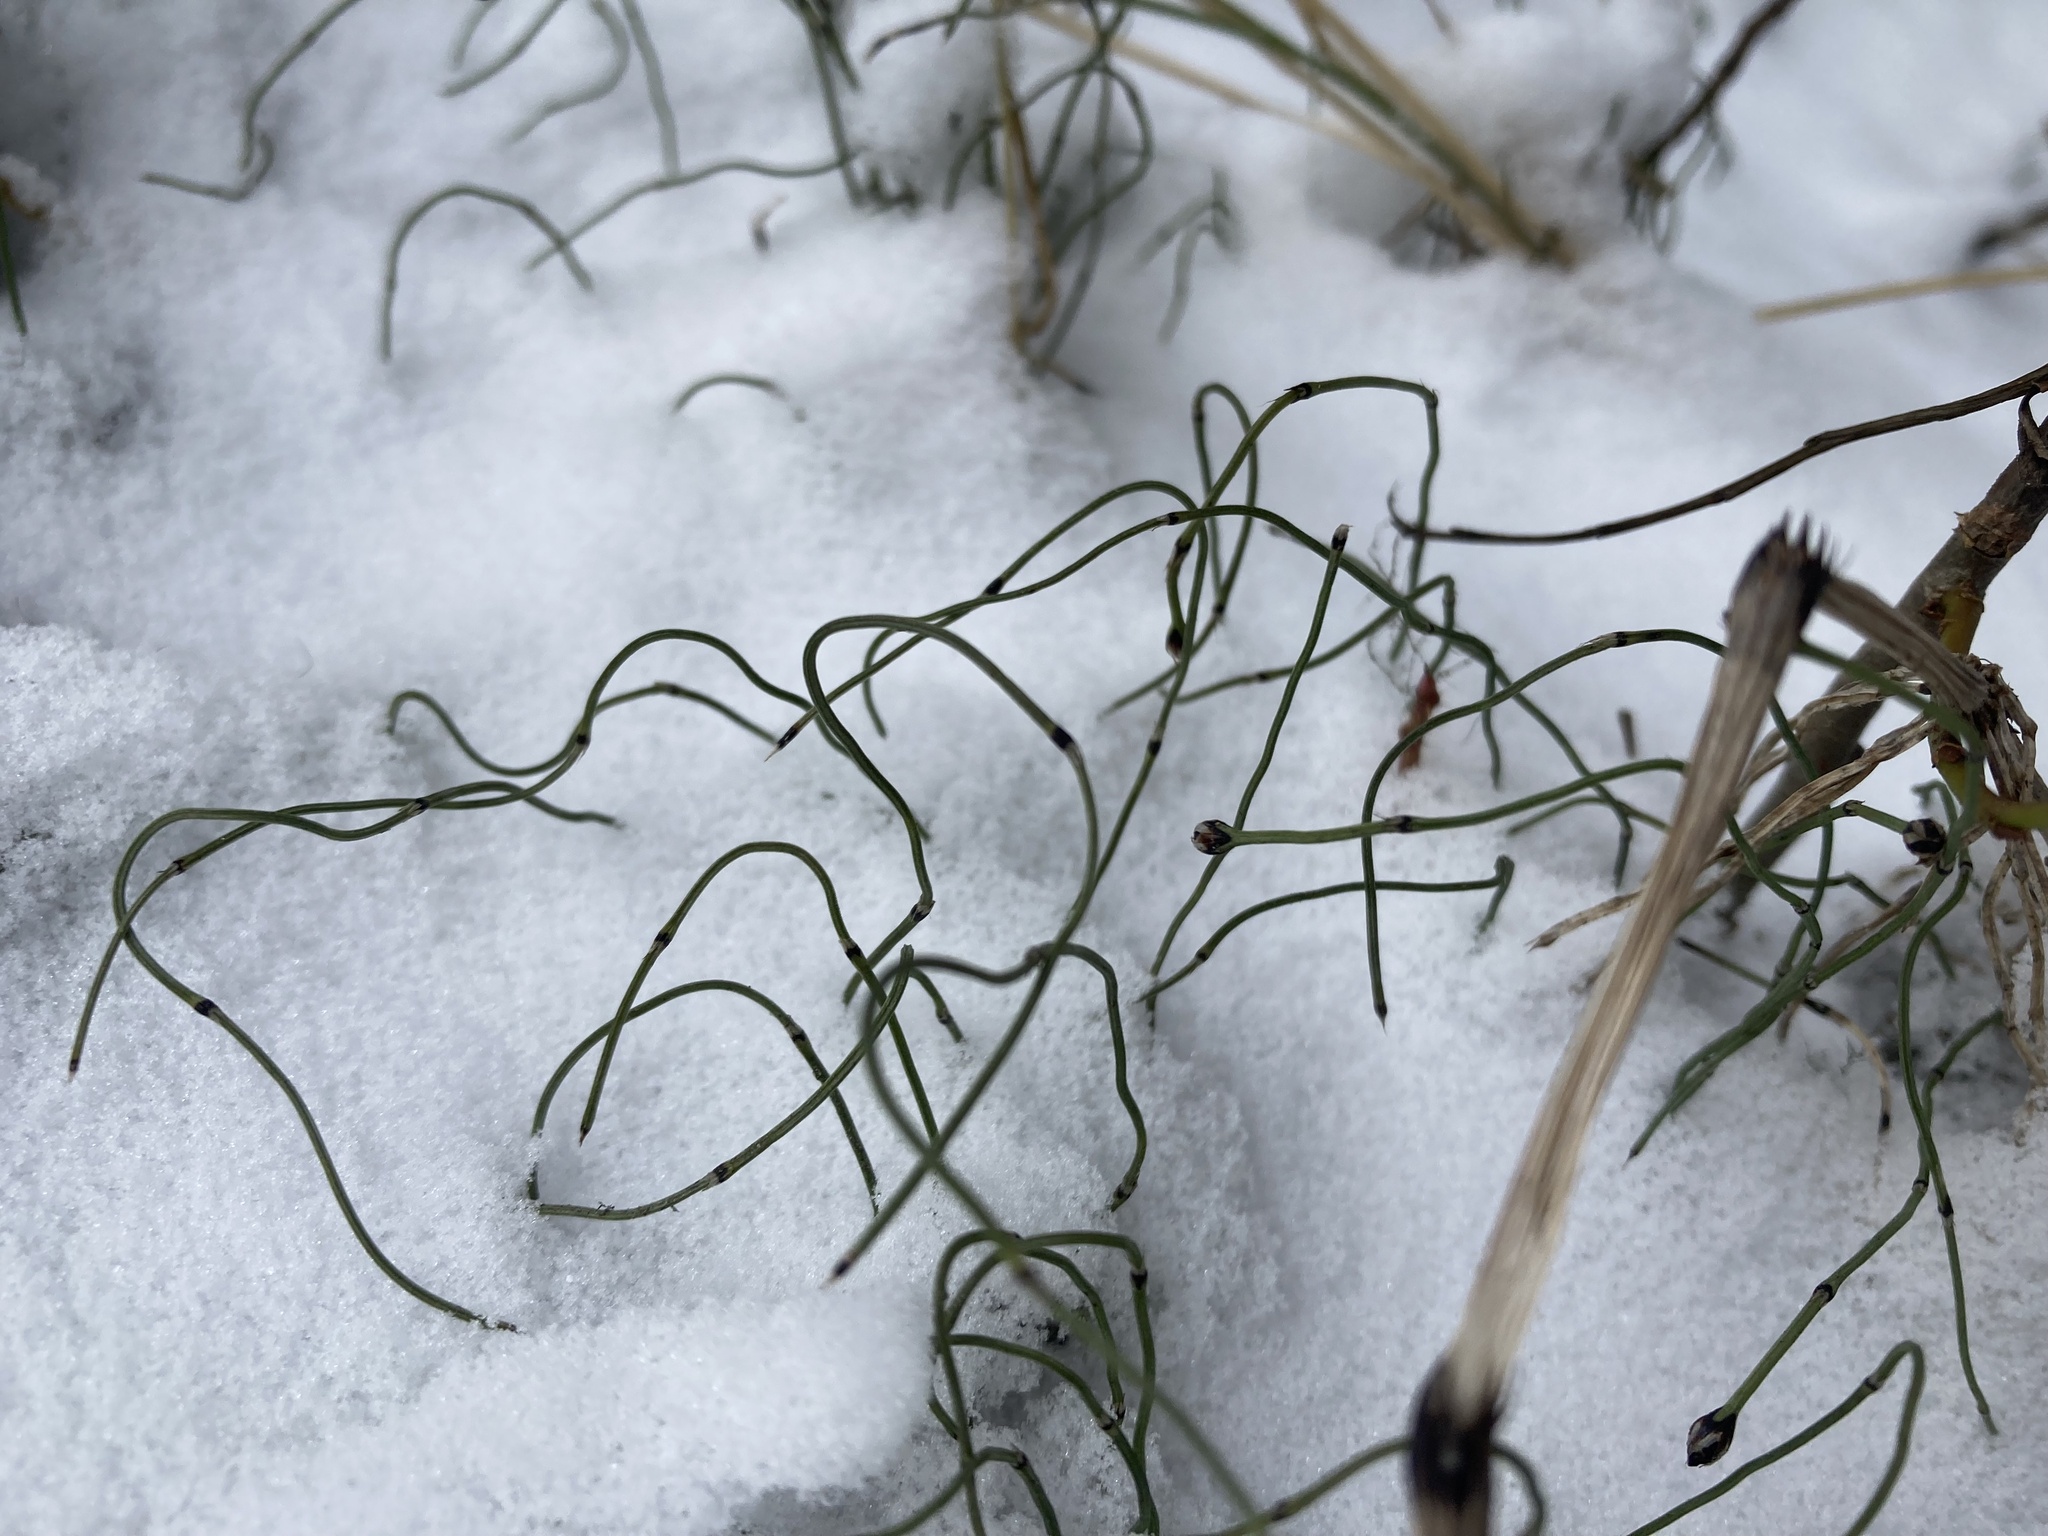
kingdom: Plantae
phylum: Tracheophyta
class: Polypodiopsida
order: Equisetales
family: Equisetaceae
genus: Equisetum
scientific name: Equisetum scirpoides
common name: Delicate horsetail
